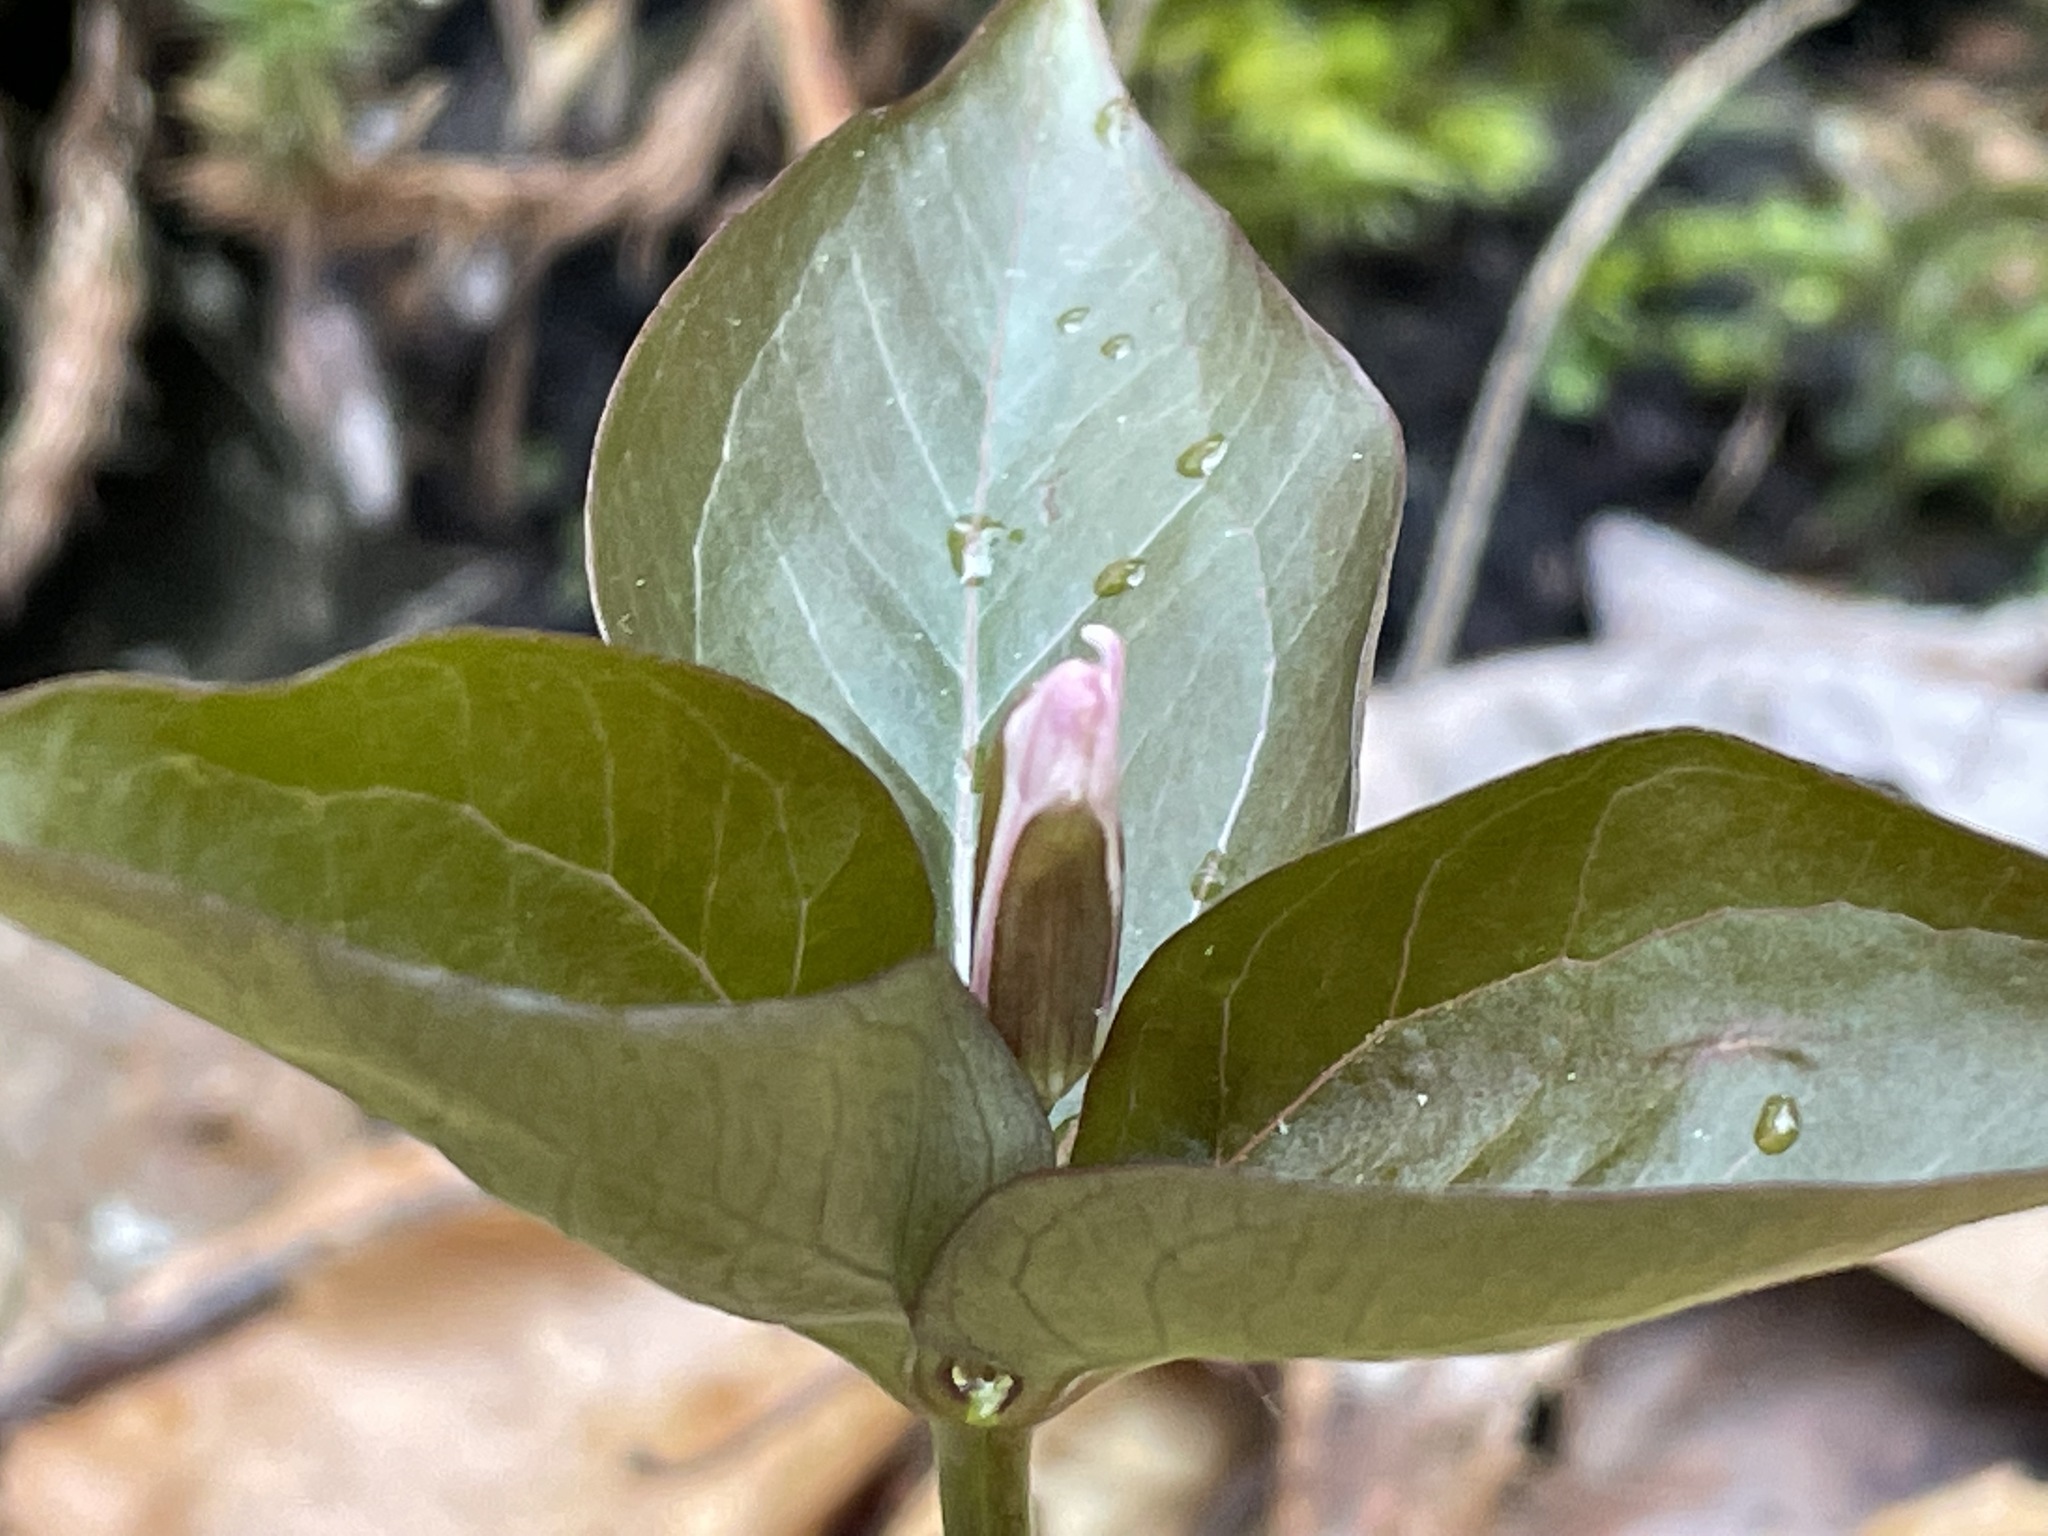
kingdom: Plantae
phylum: Tracheophyta
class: Liliopsida
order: Liliales
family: Melanthiaceae
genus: Trillium
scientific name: Trillium undulatum
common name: Paint trillium
